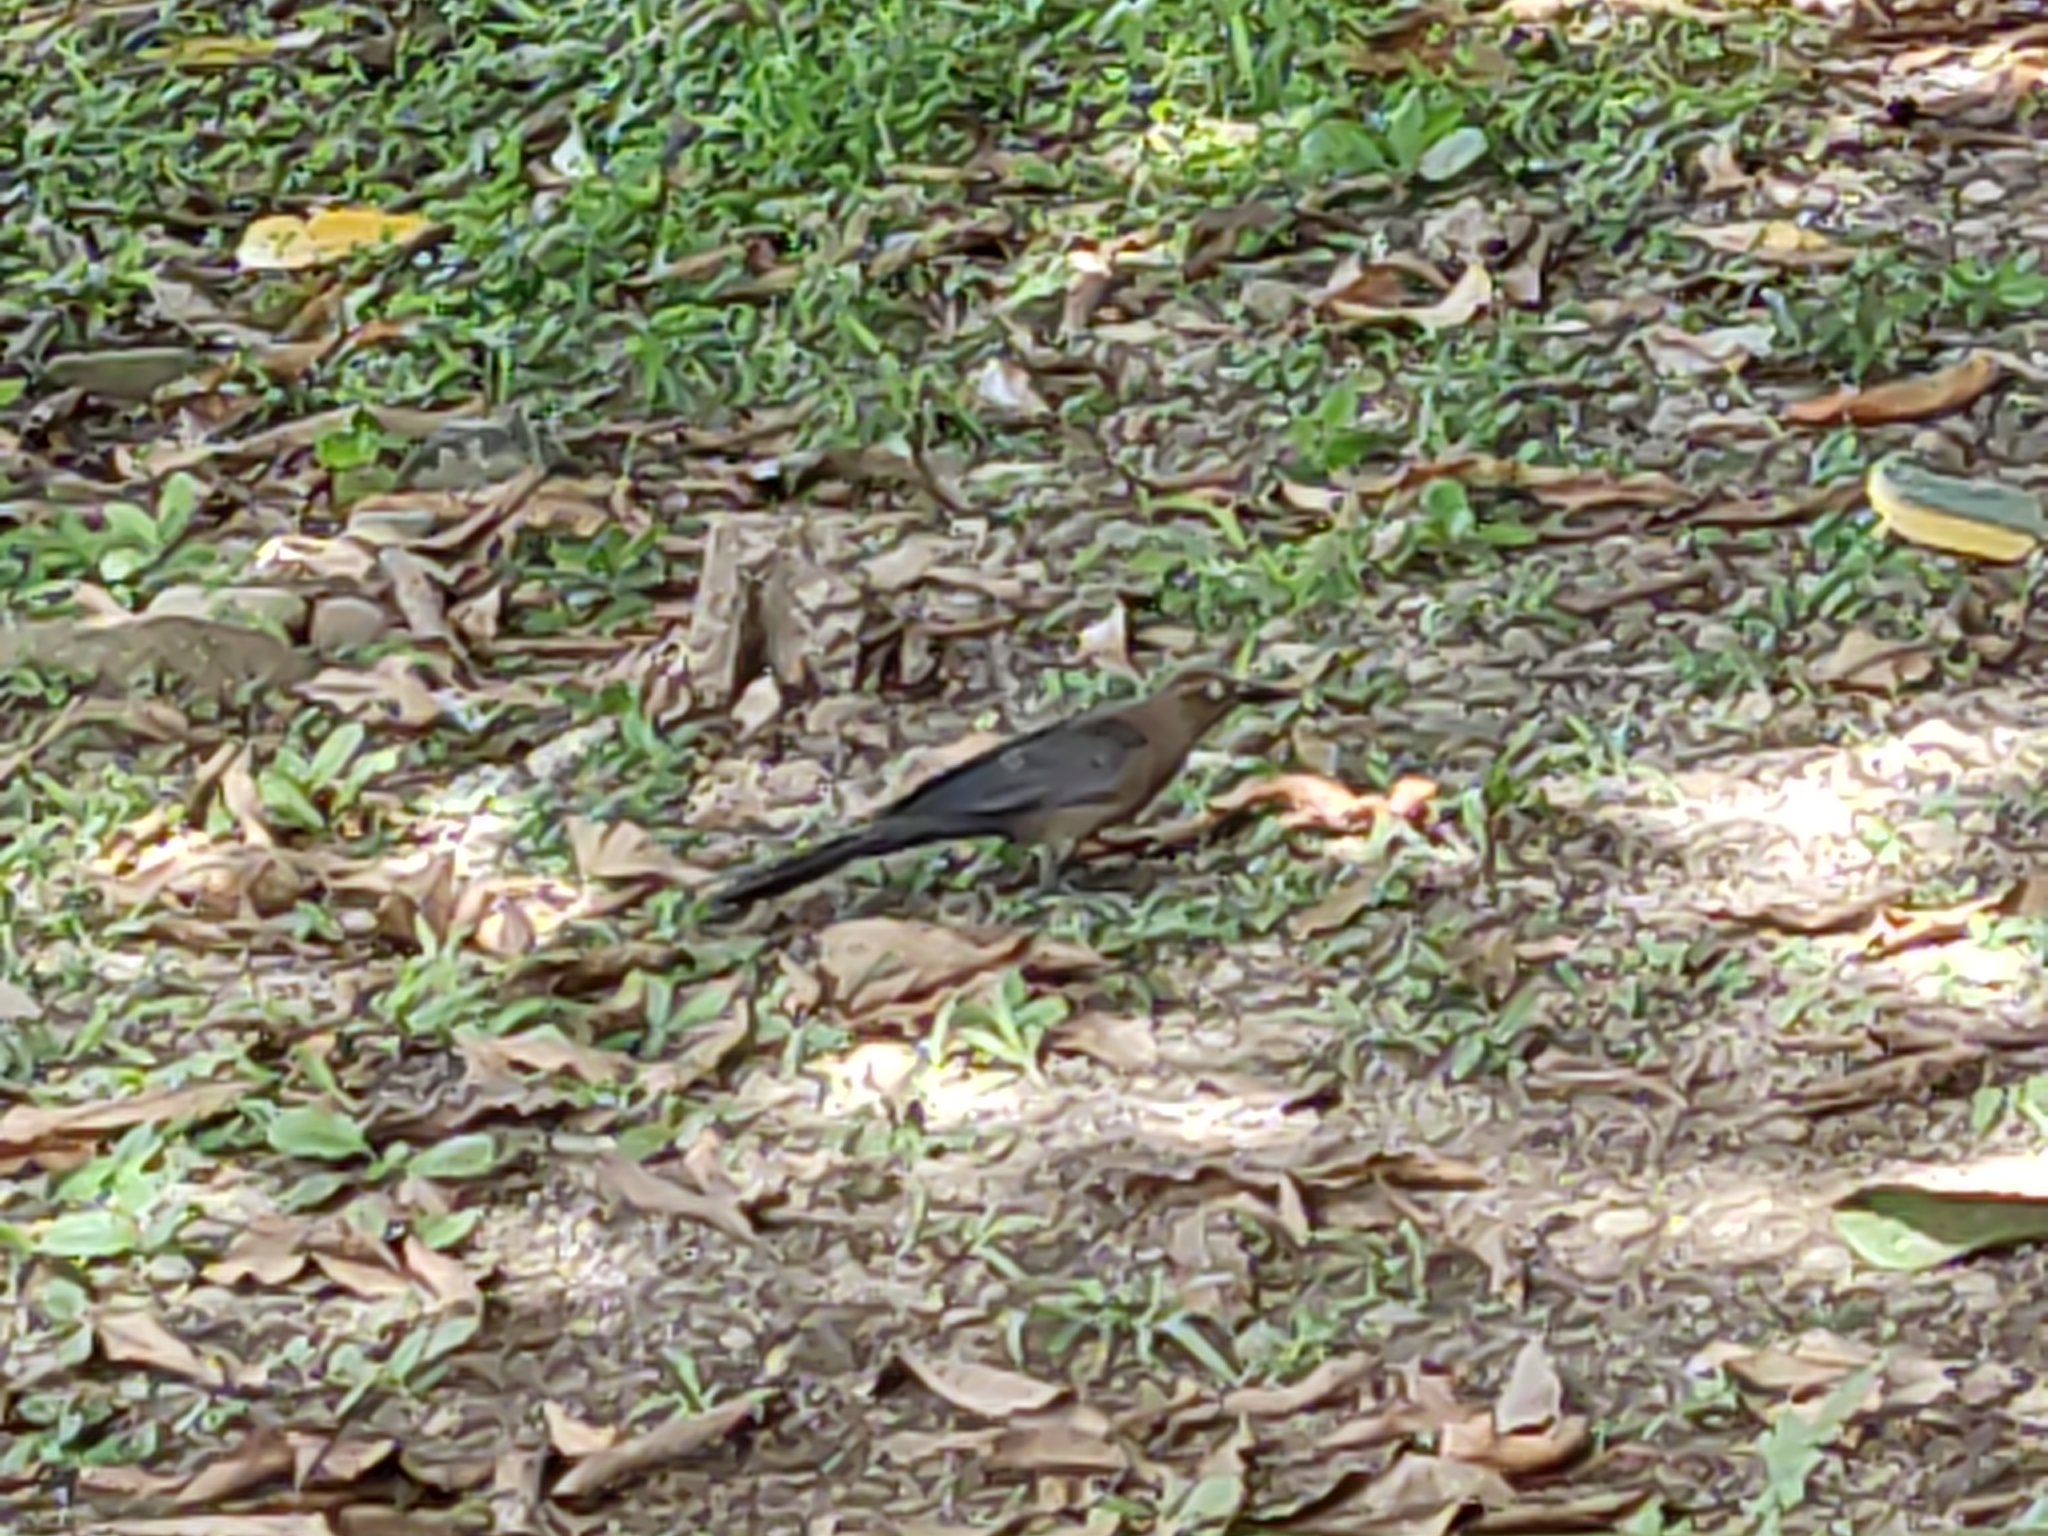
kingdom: Animalia
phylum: Chordata
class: Aves
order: Passeriformes
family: Icteridae
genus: Quiscalus
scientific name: Quiscalus mexicanus
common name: Great-tailed grackle
